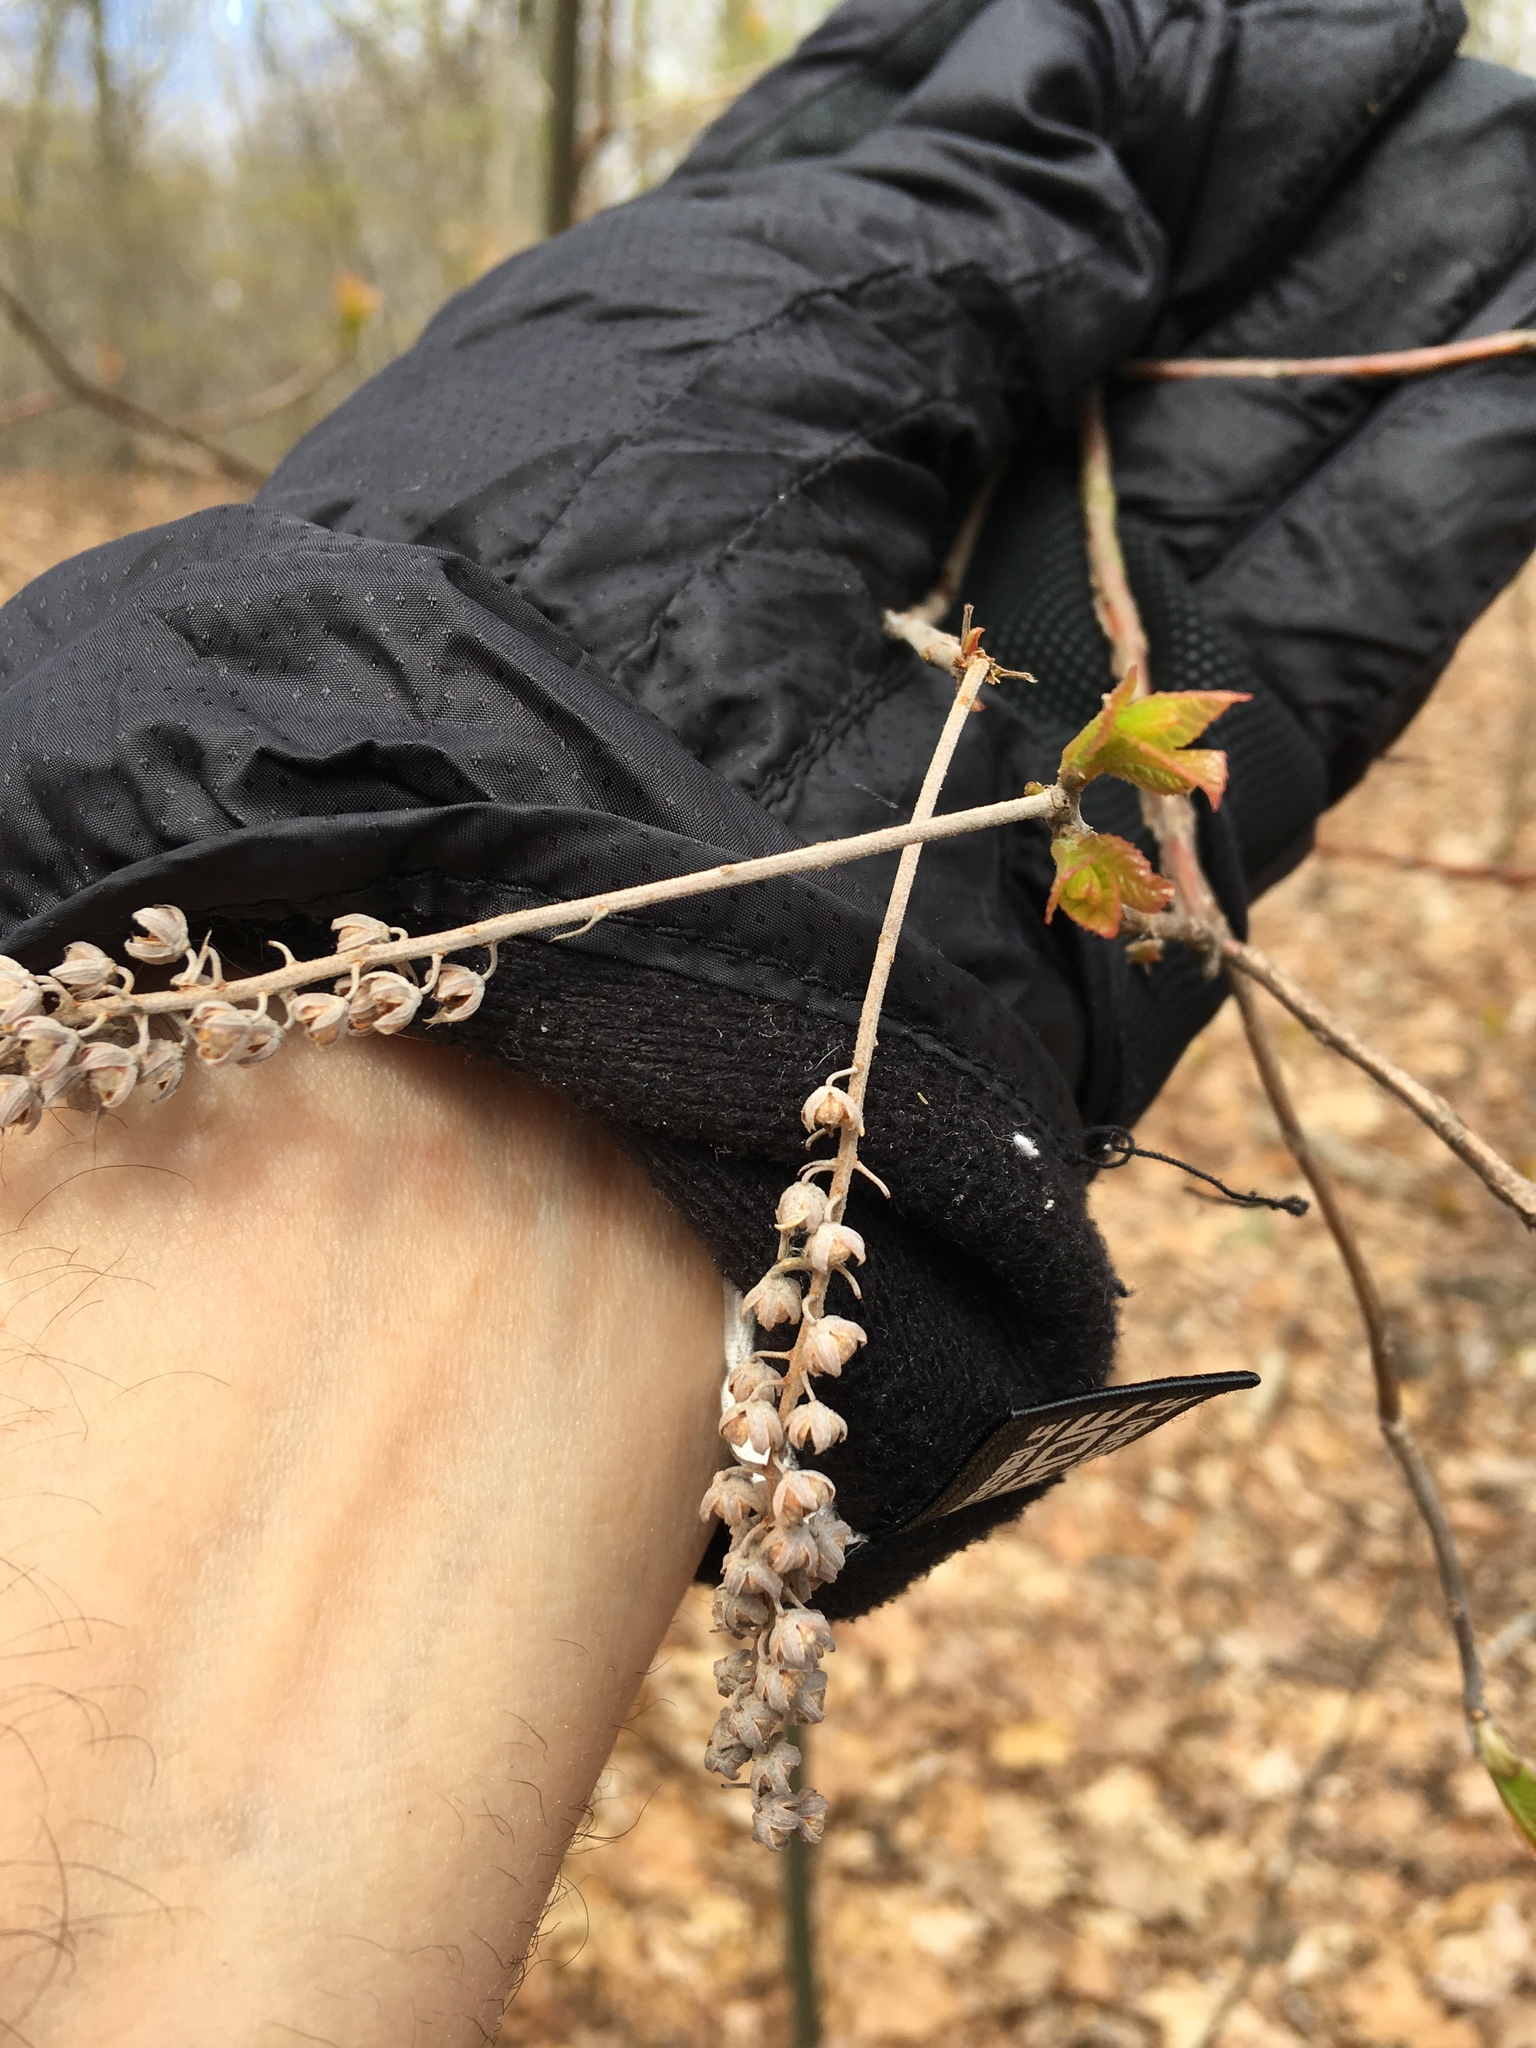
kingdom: Plantae
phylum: Tracheophyta
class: Magnoliopsida
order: Ericales
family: Clethraceae
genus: Clethra
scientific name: Clethra alnifolia
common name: Sweet pepperbush
